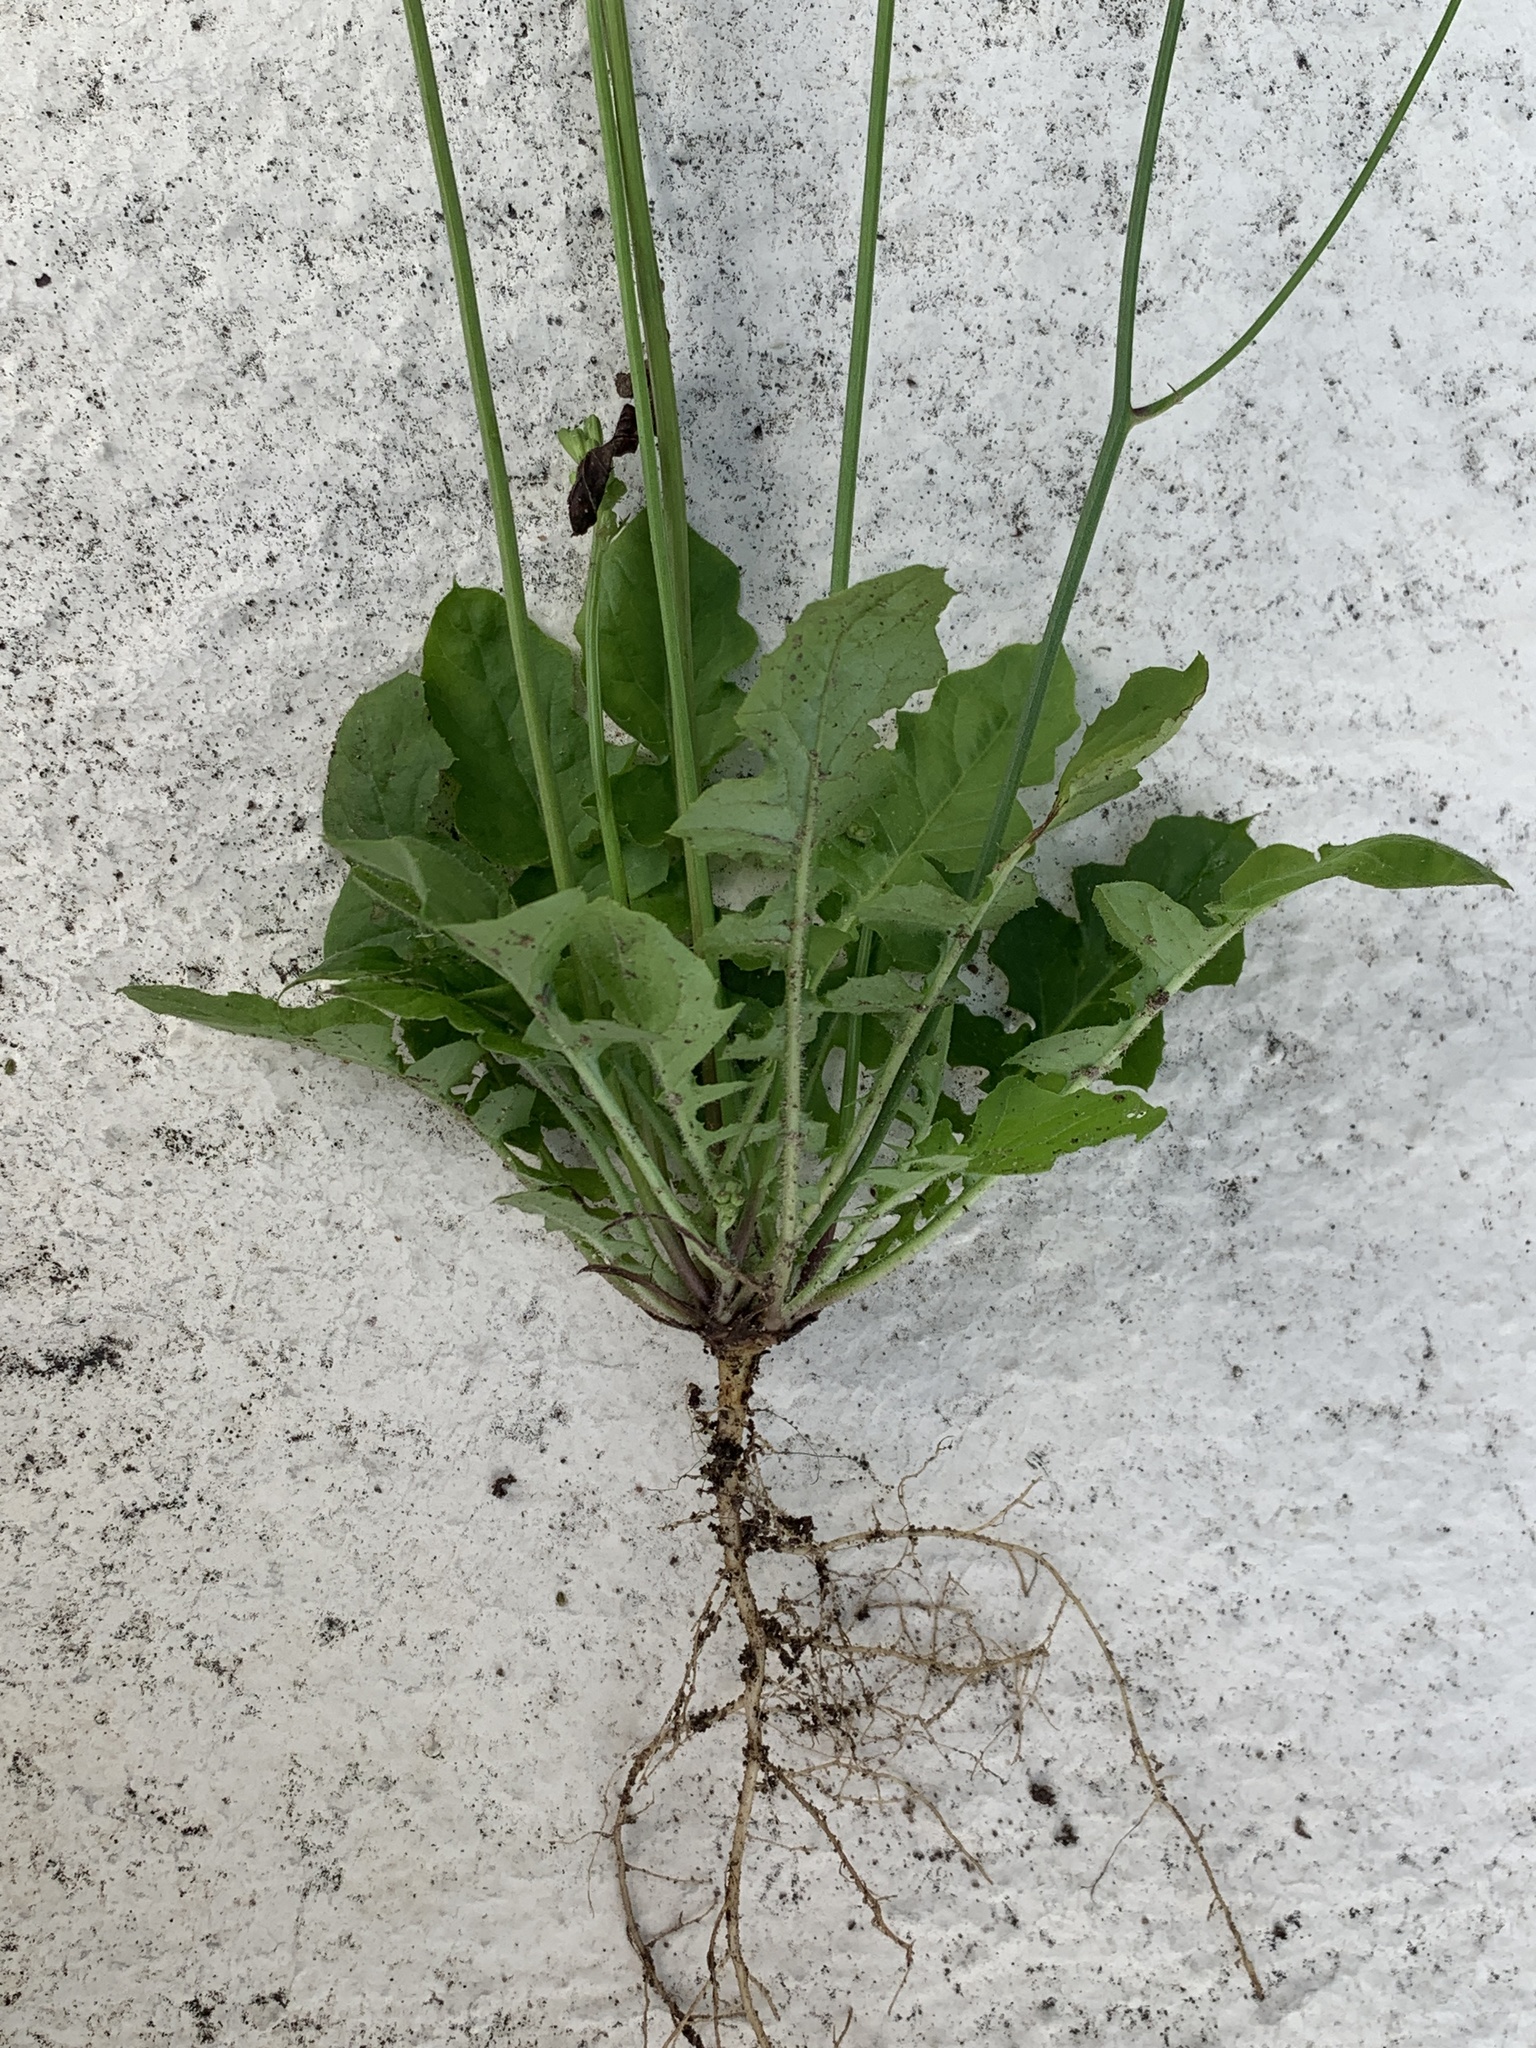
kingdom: Plantae
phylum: Tracheophyta
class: Magnoliopsida
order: Asterales
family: Asteraceae
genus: Youngia
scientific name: Youngia japonica
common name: Oriental false hawksbeard
